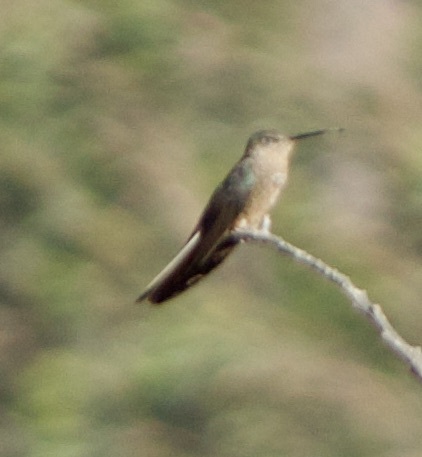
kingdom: Animalia
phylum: Chordata
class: Aves
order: Apodiformes
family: Trochilidae
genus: Patagona
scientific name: Patagona gigas
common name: Giant hummingbird
